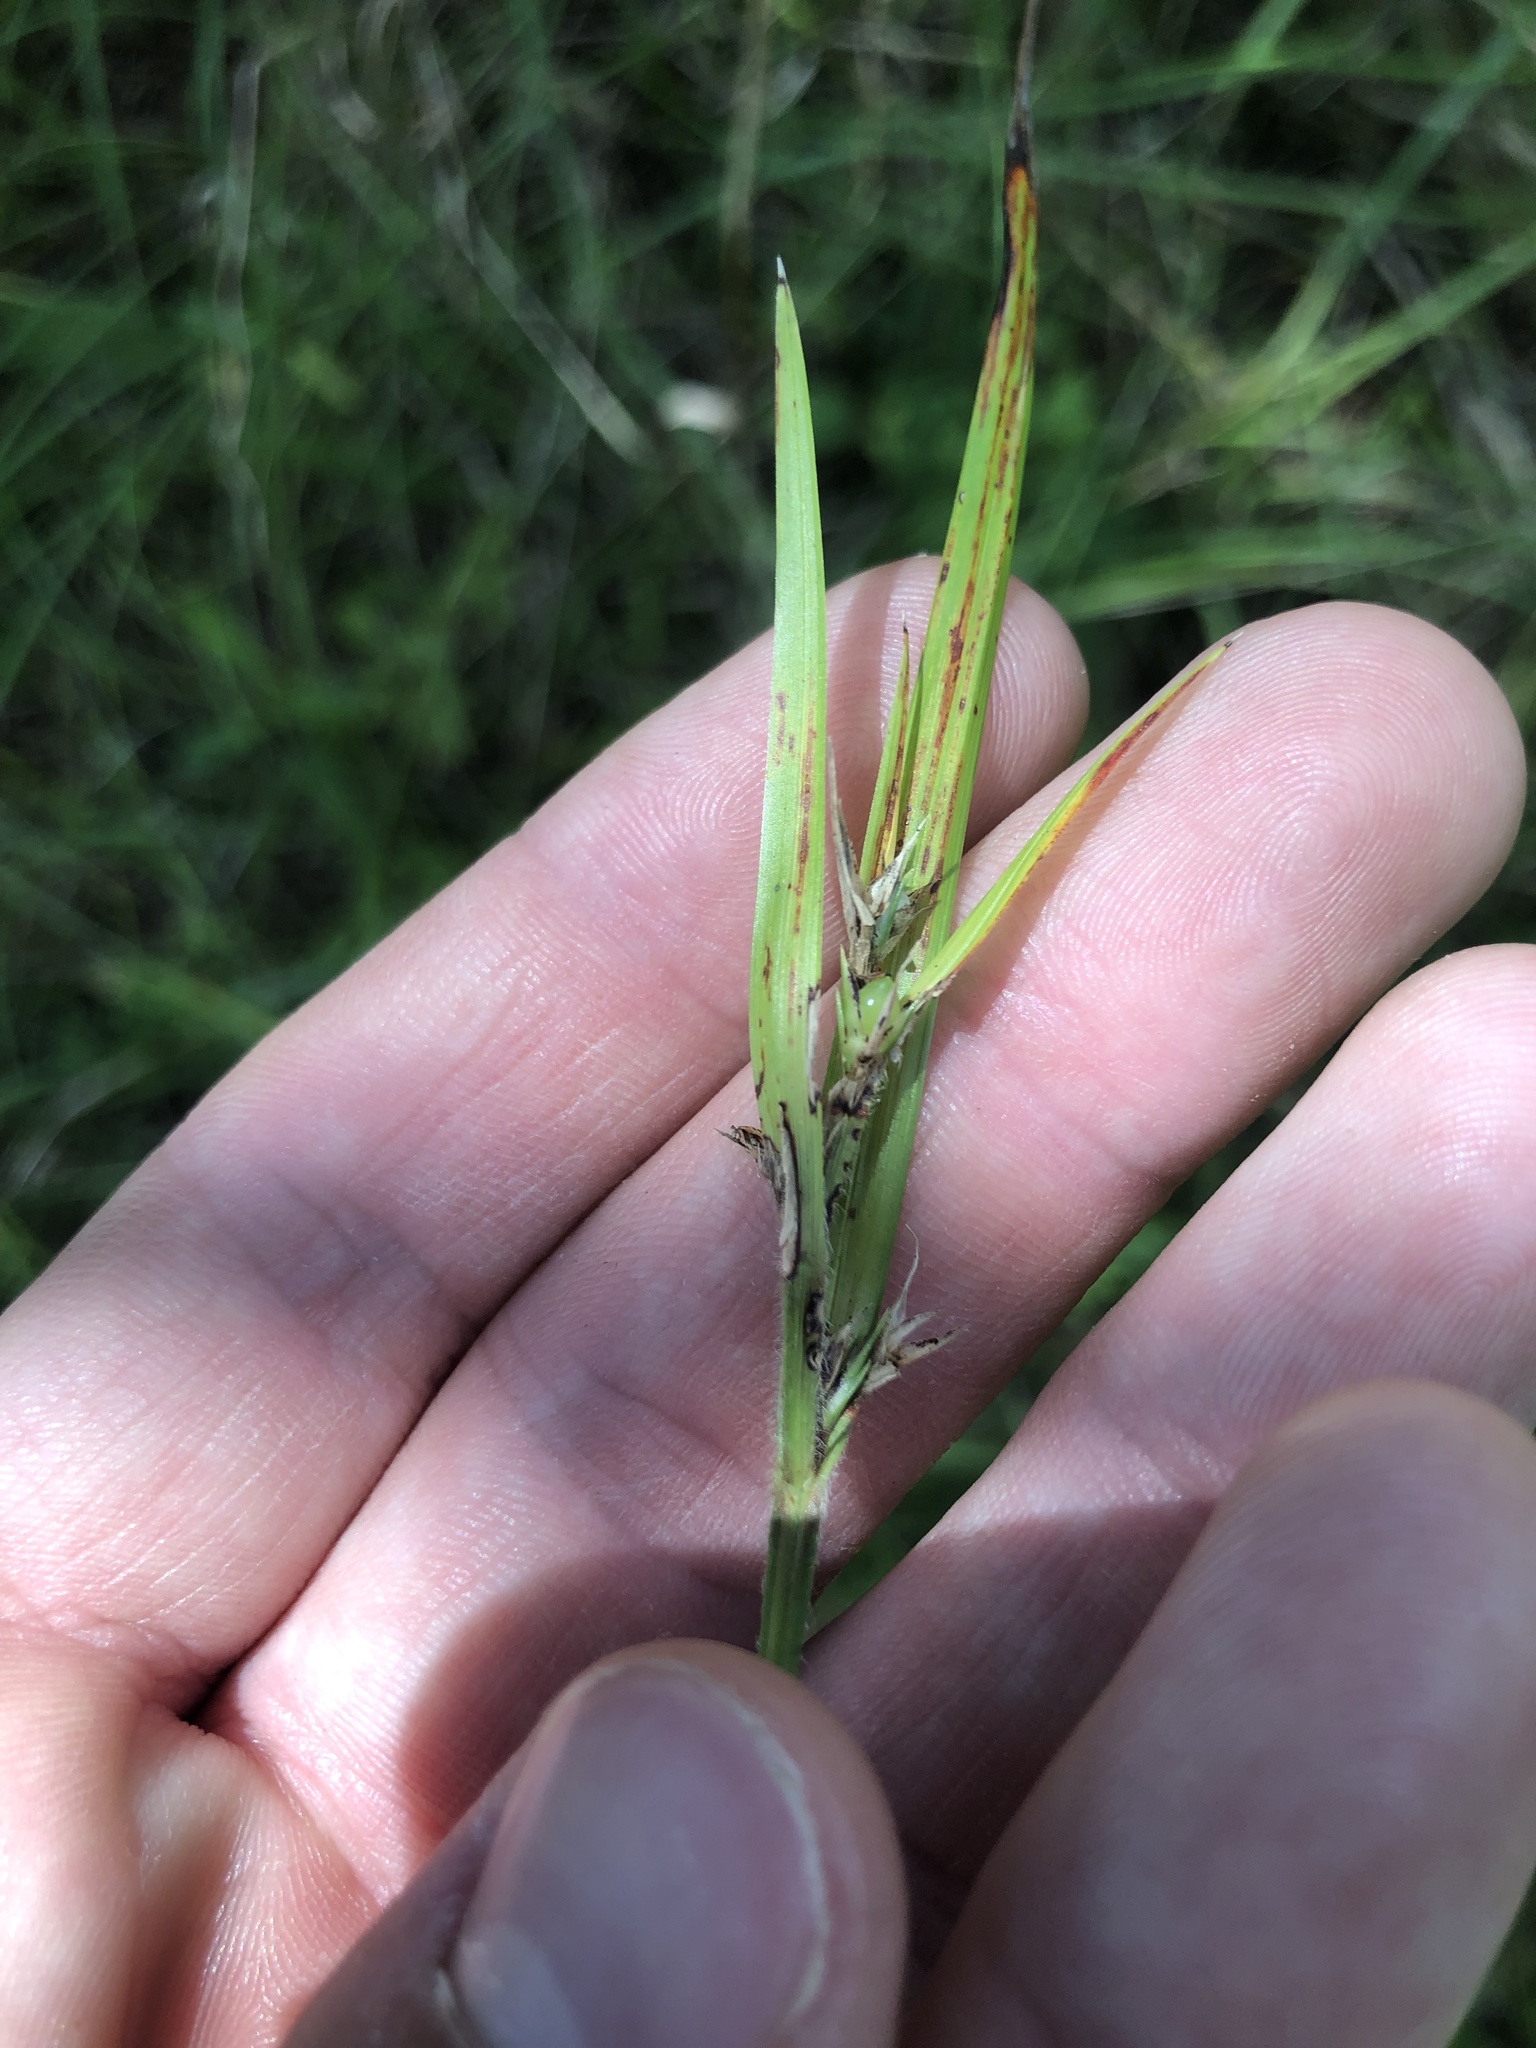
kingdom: Plantae
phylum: Tracheophyta
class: Liliopsida
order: Poales
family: Cyperaceae
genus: Scleria
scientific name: Scleria oligantha
